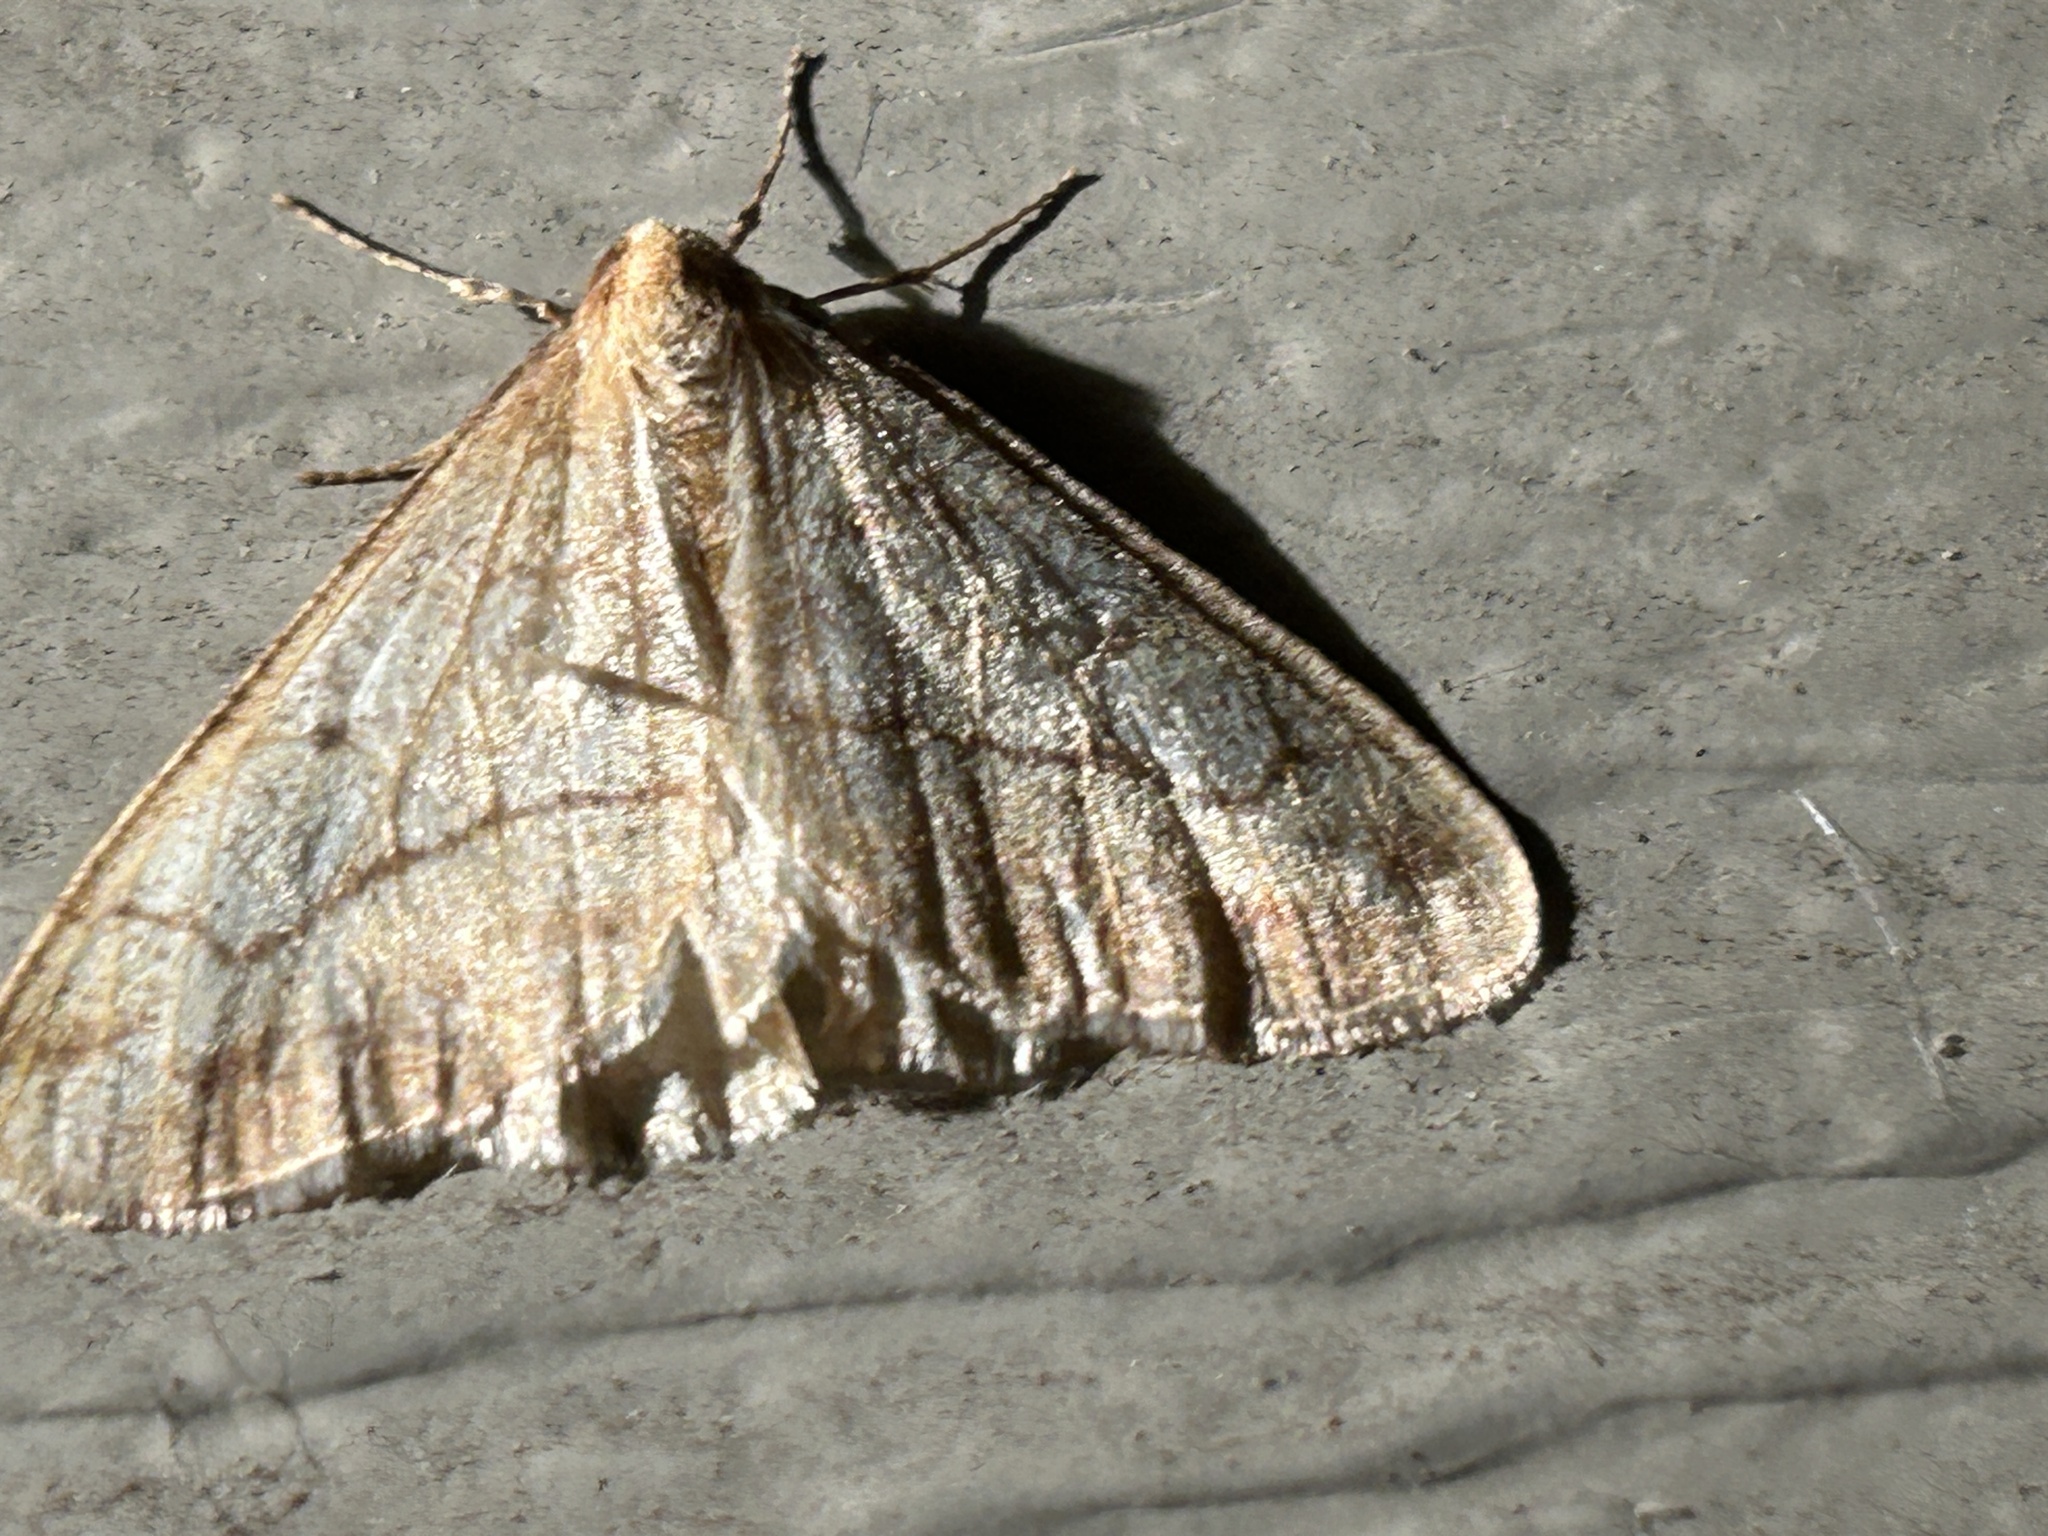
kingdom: Animalia
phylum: Arthropoda
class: Insecta
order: Lepidoptera
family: Geometridae
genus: Erannis
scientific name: Erannis tiliaria
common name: Linden looper
